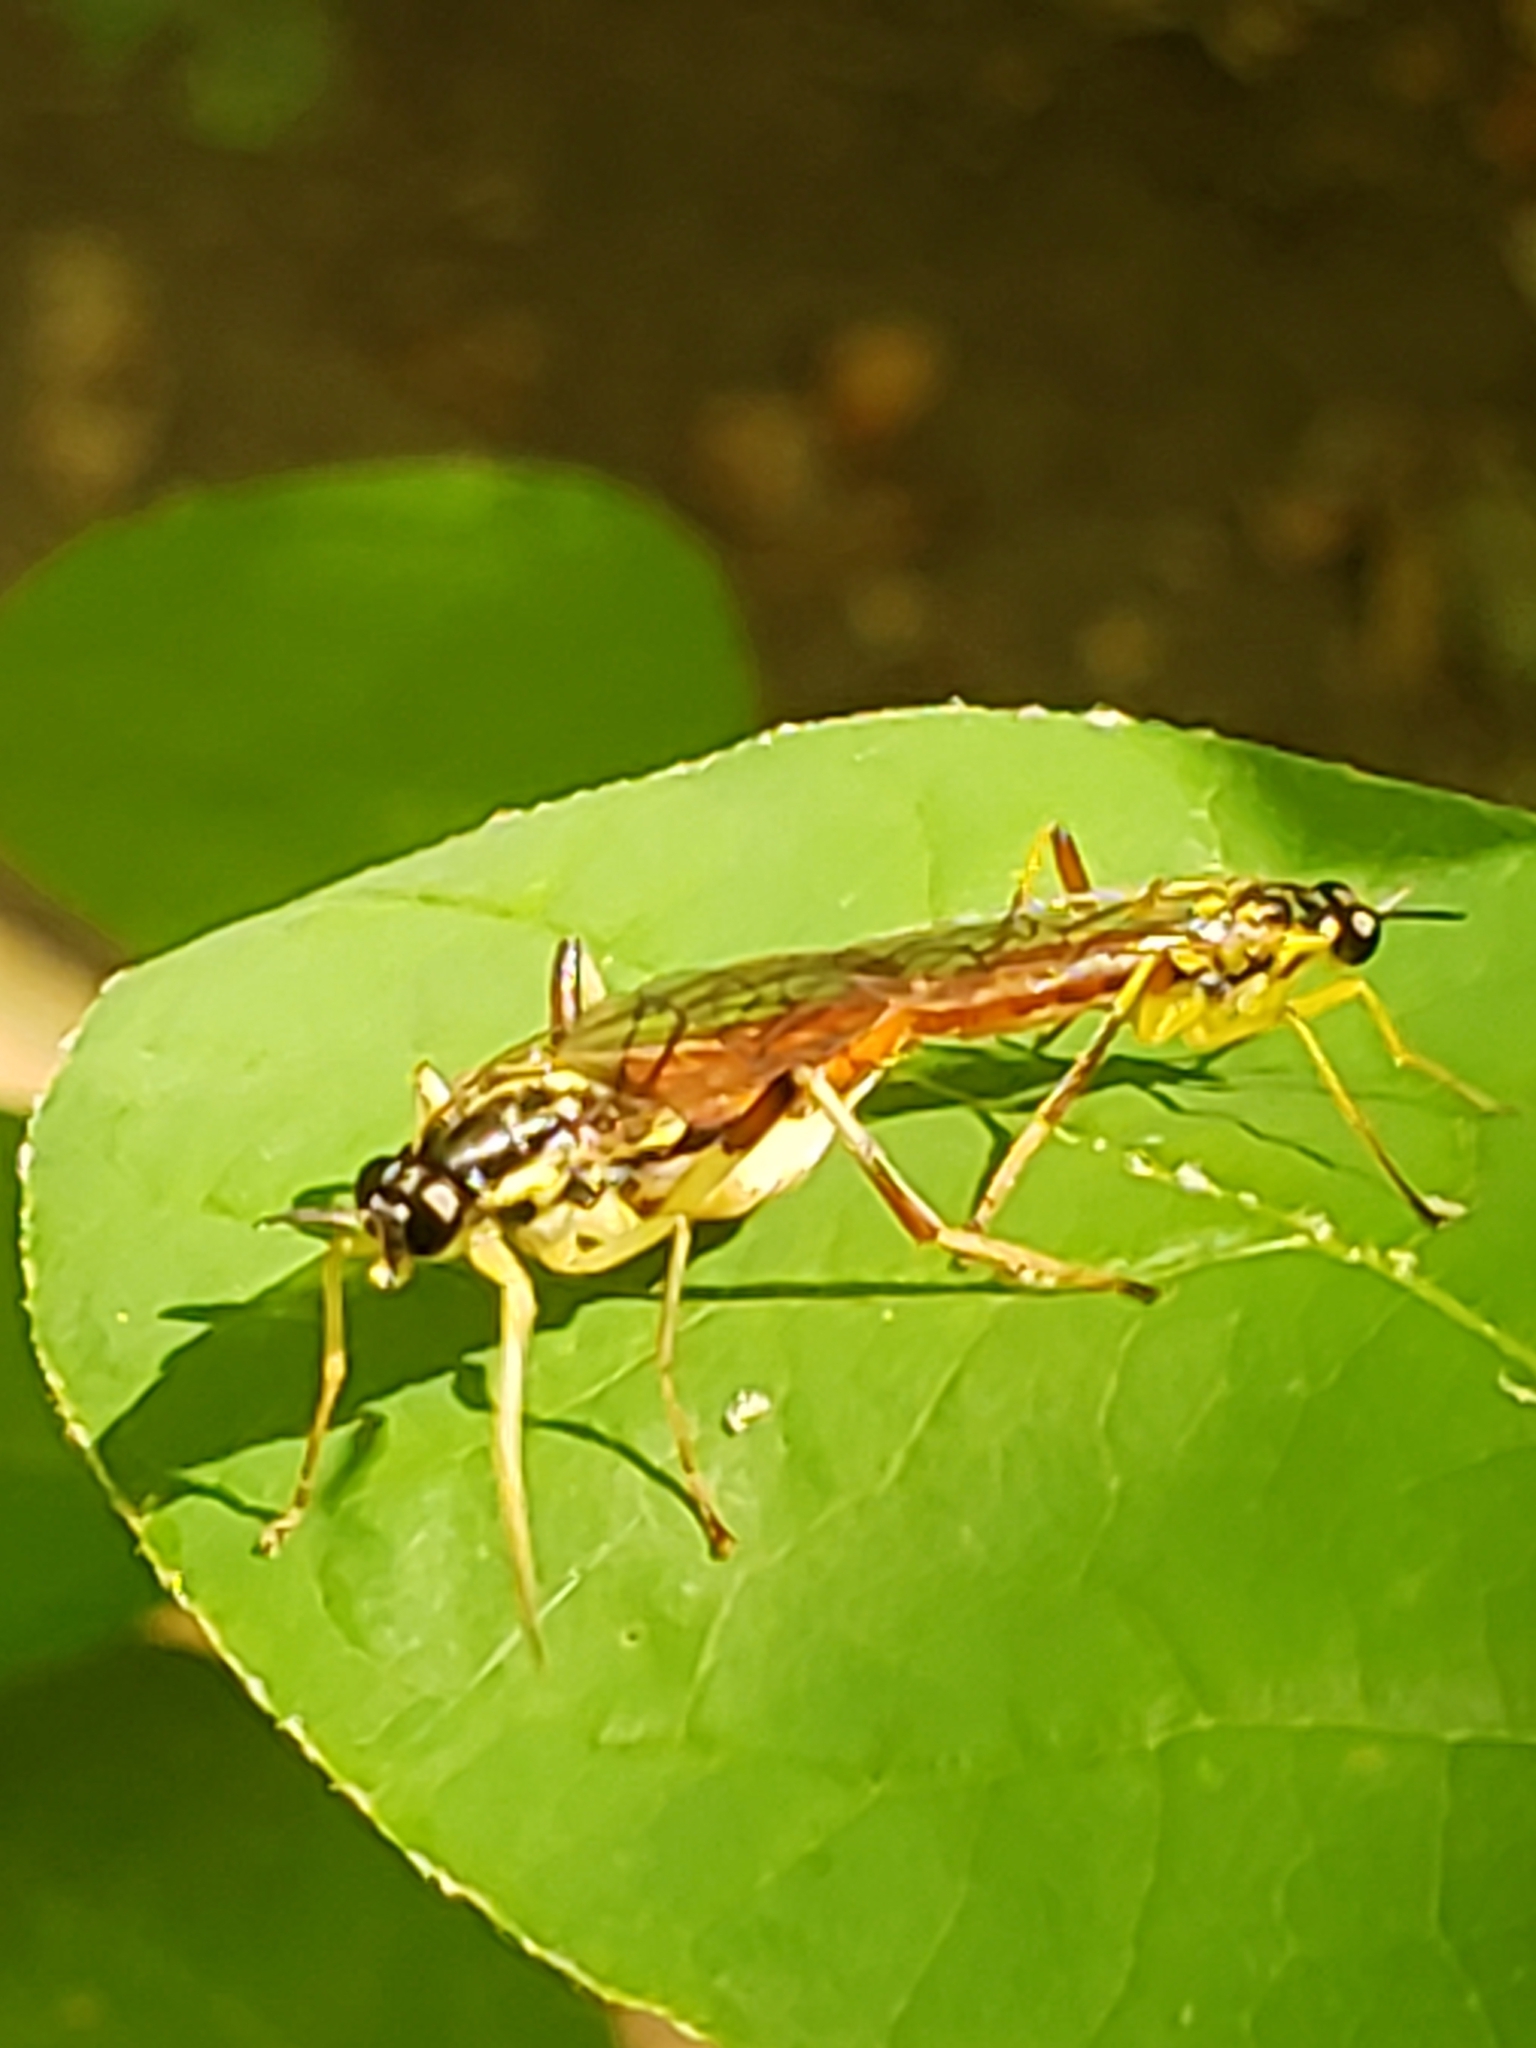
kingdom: Animalia
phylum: Arthropoda
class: Insecta
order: Diptera
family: Xylomyidae
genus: Xylomya
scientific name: Xylomya simillima
